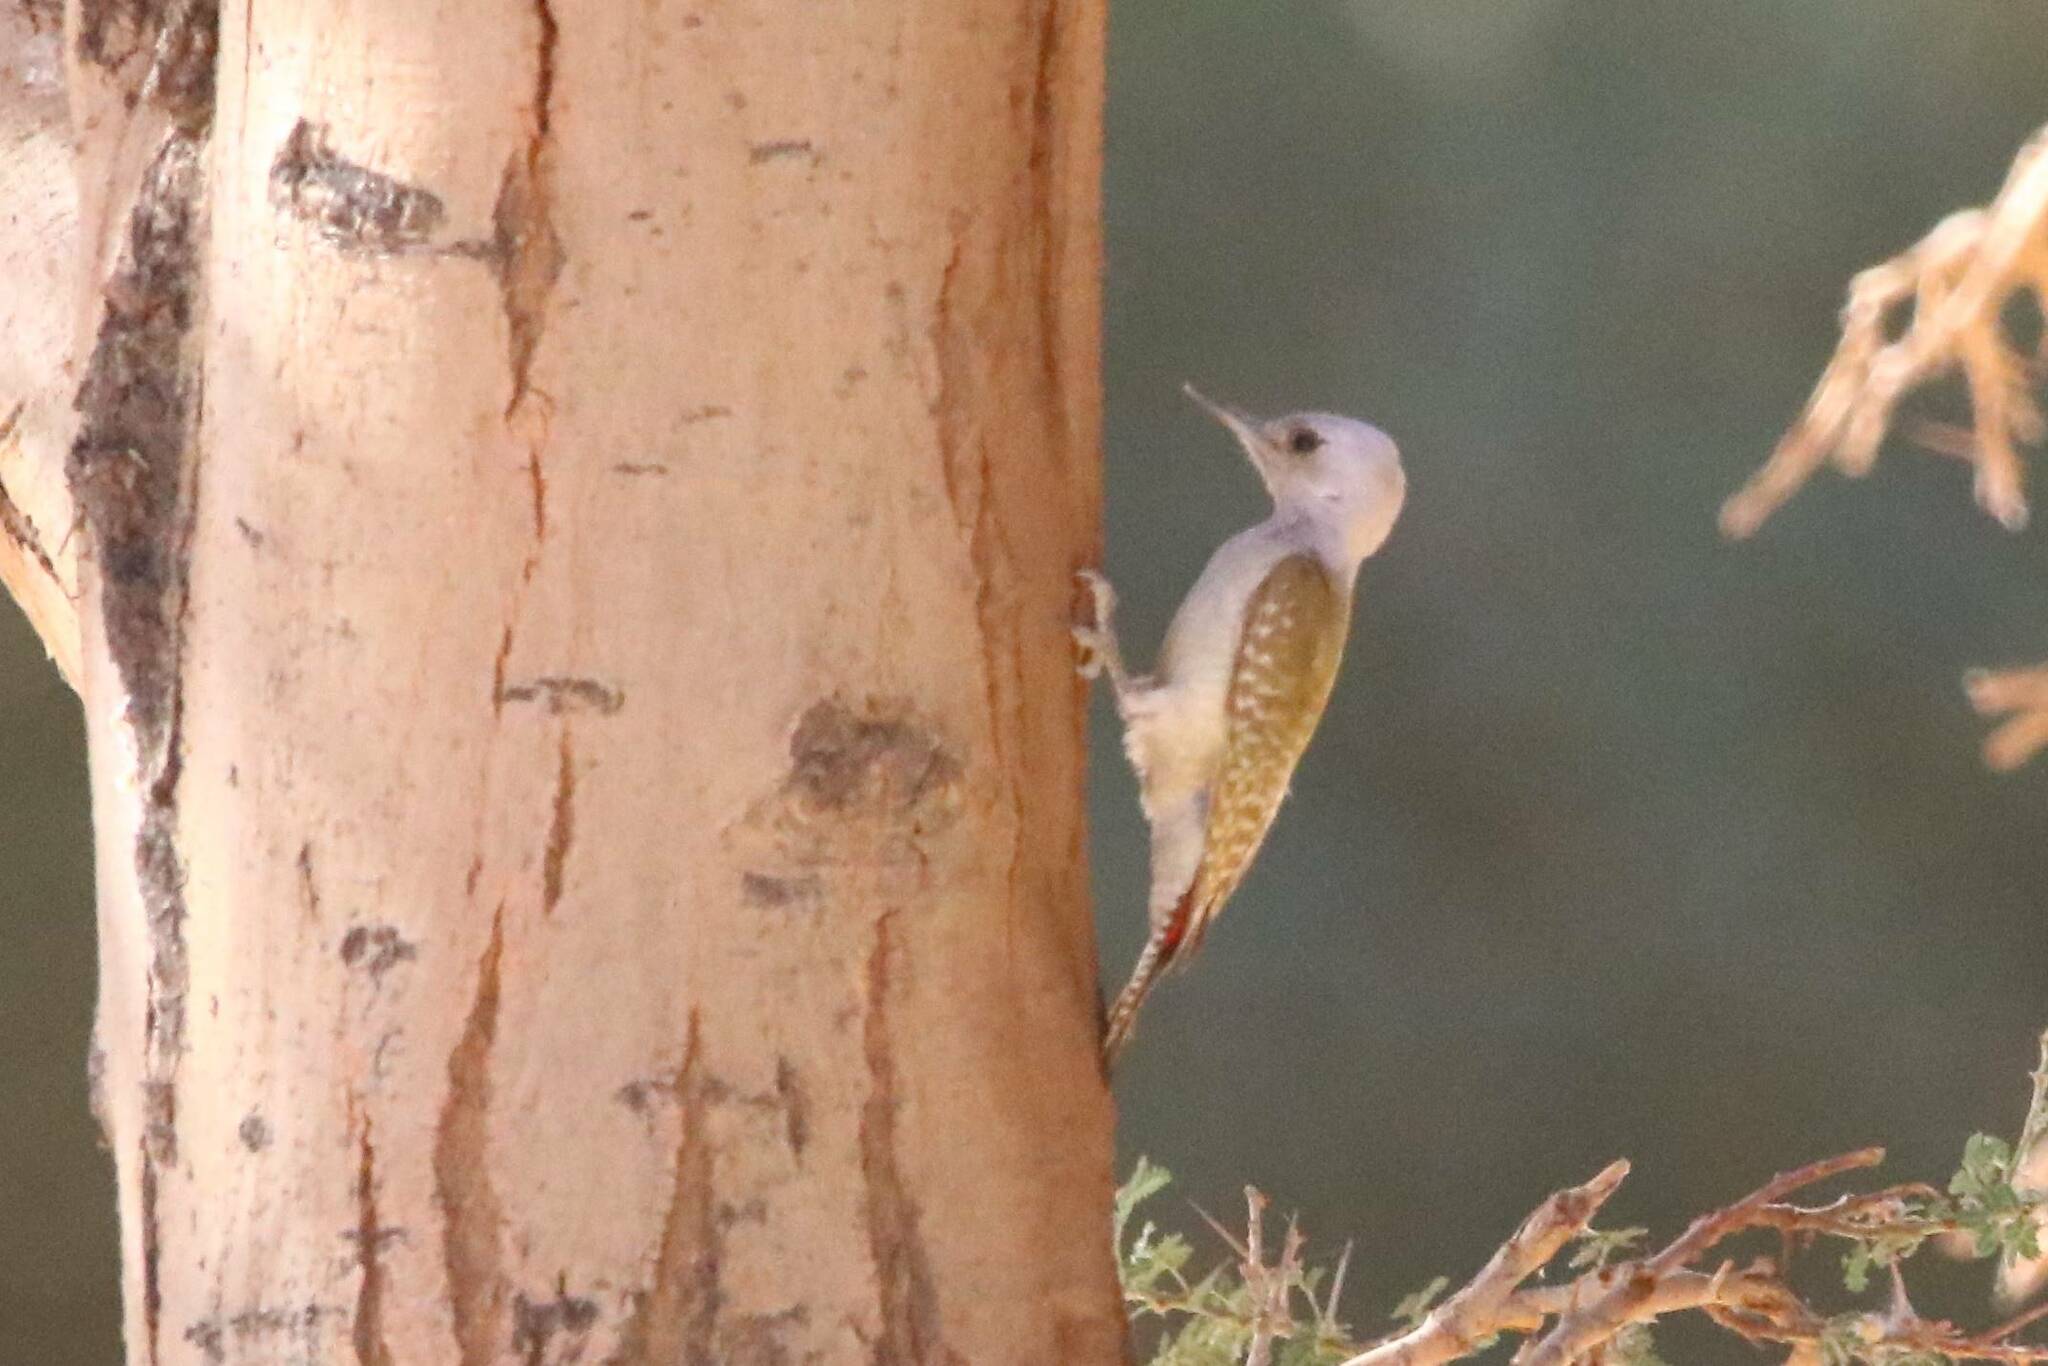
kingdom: Animalia
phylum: Chordata
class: Aves
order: Piciformes
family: Picidae
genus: Dendropicos
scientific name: Dendropicos goertae
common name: African grey woodpecker
